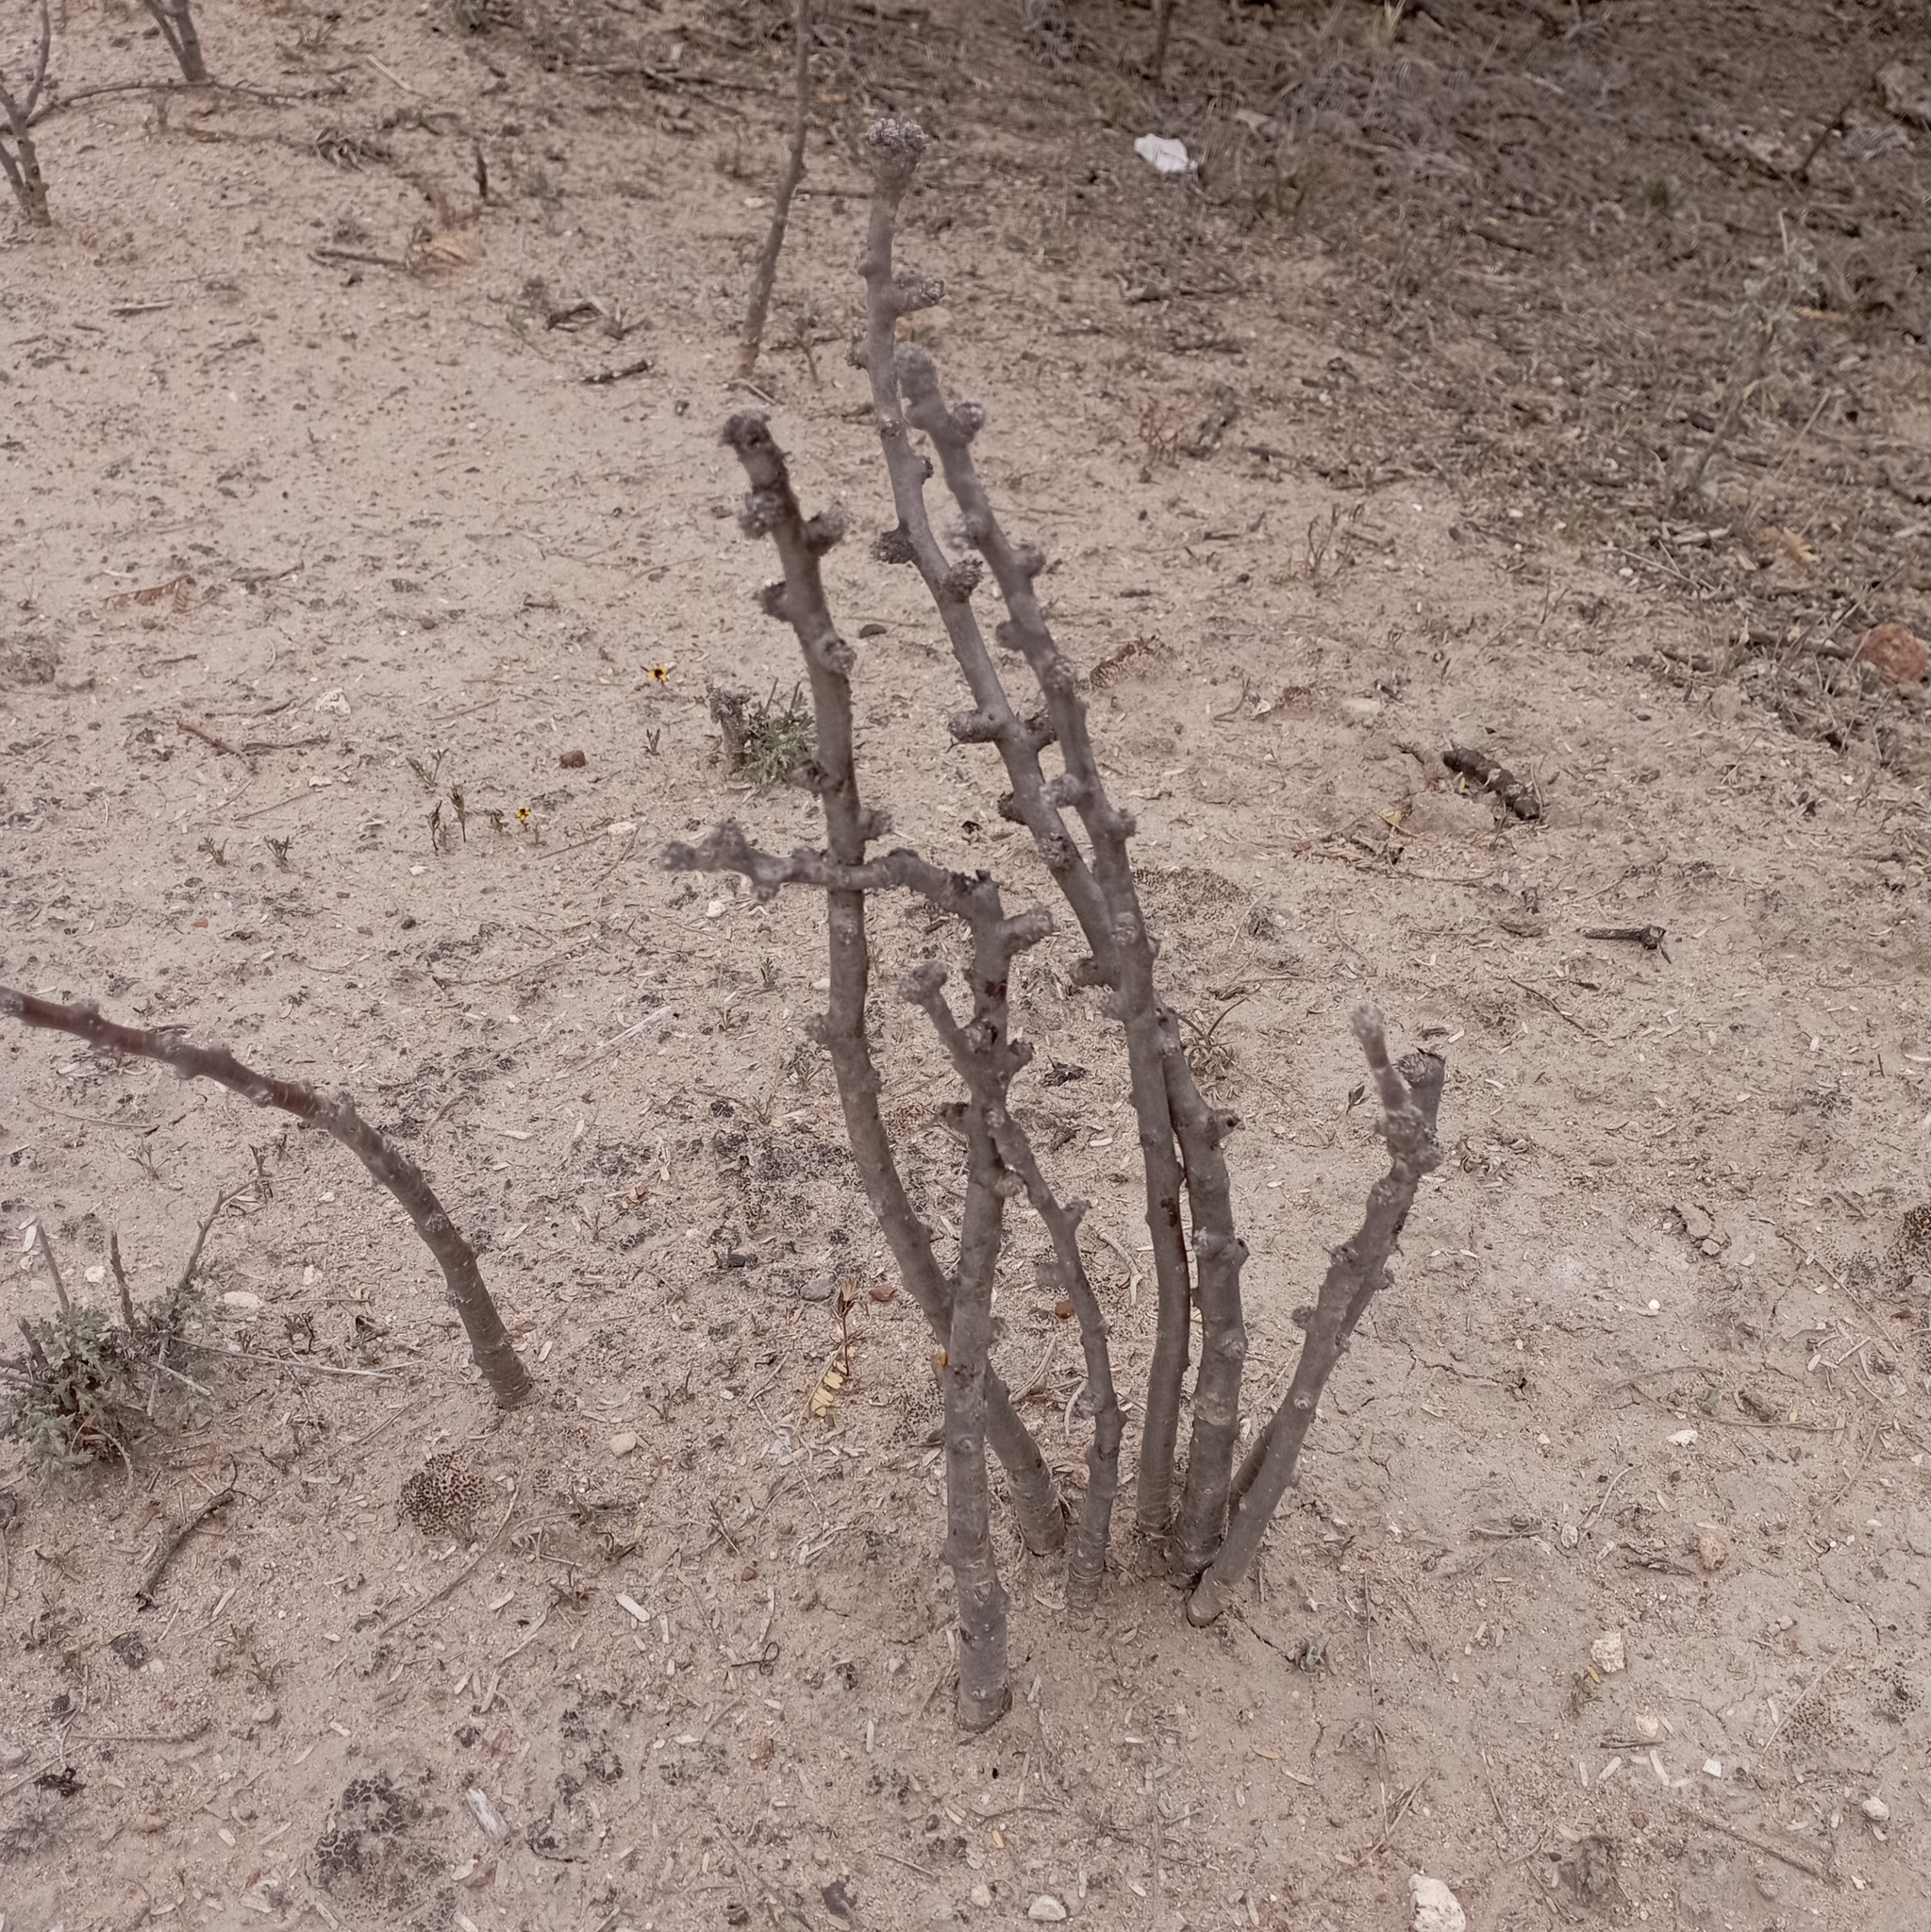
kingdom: Plantae
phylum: Tracheophyta
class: Magnoliopsida
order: Malpighiales
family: Euphorbiaceae
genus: Jatropha
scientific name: Jatropha dioica
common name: Leatherstem
